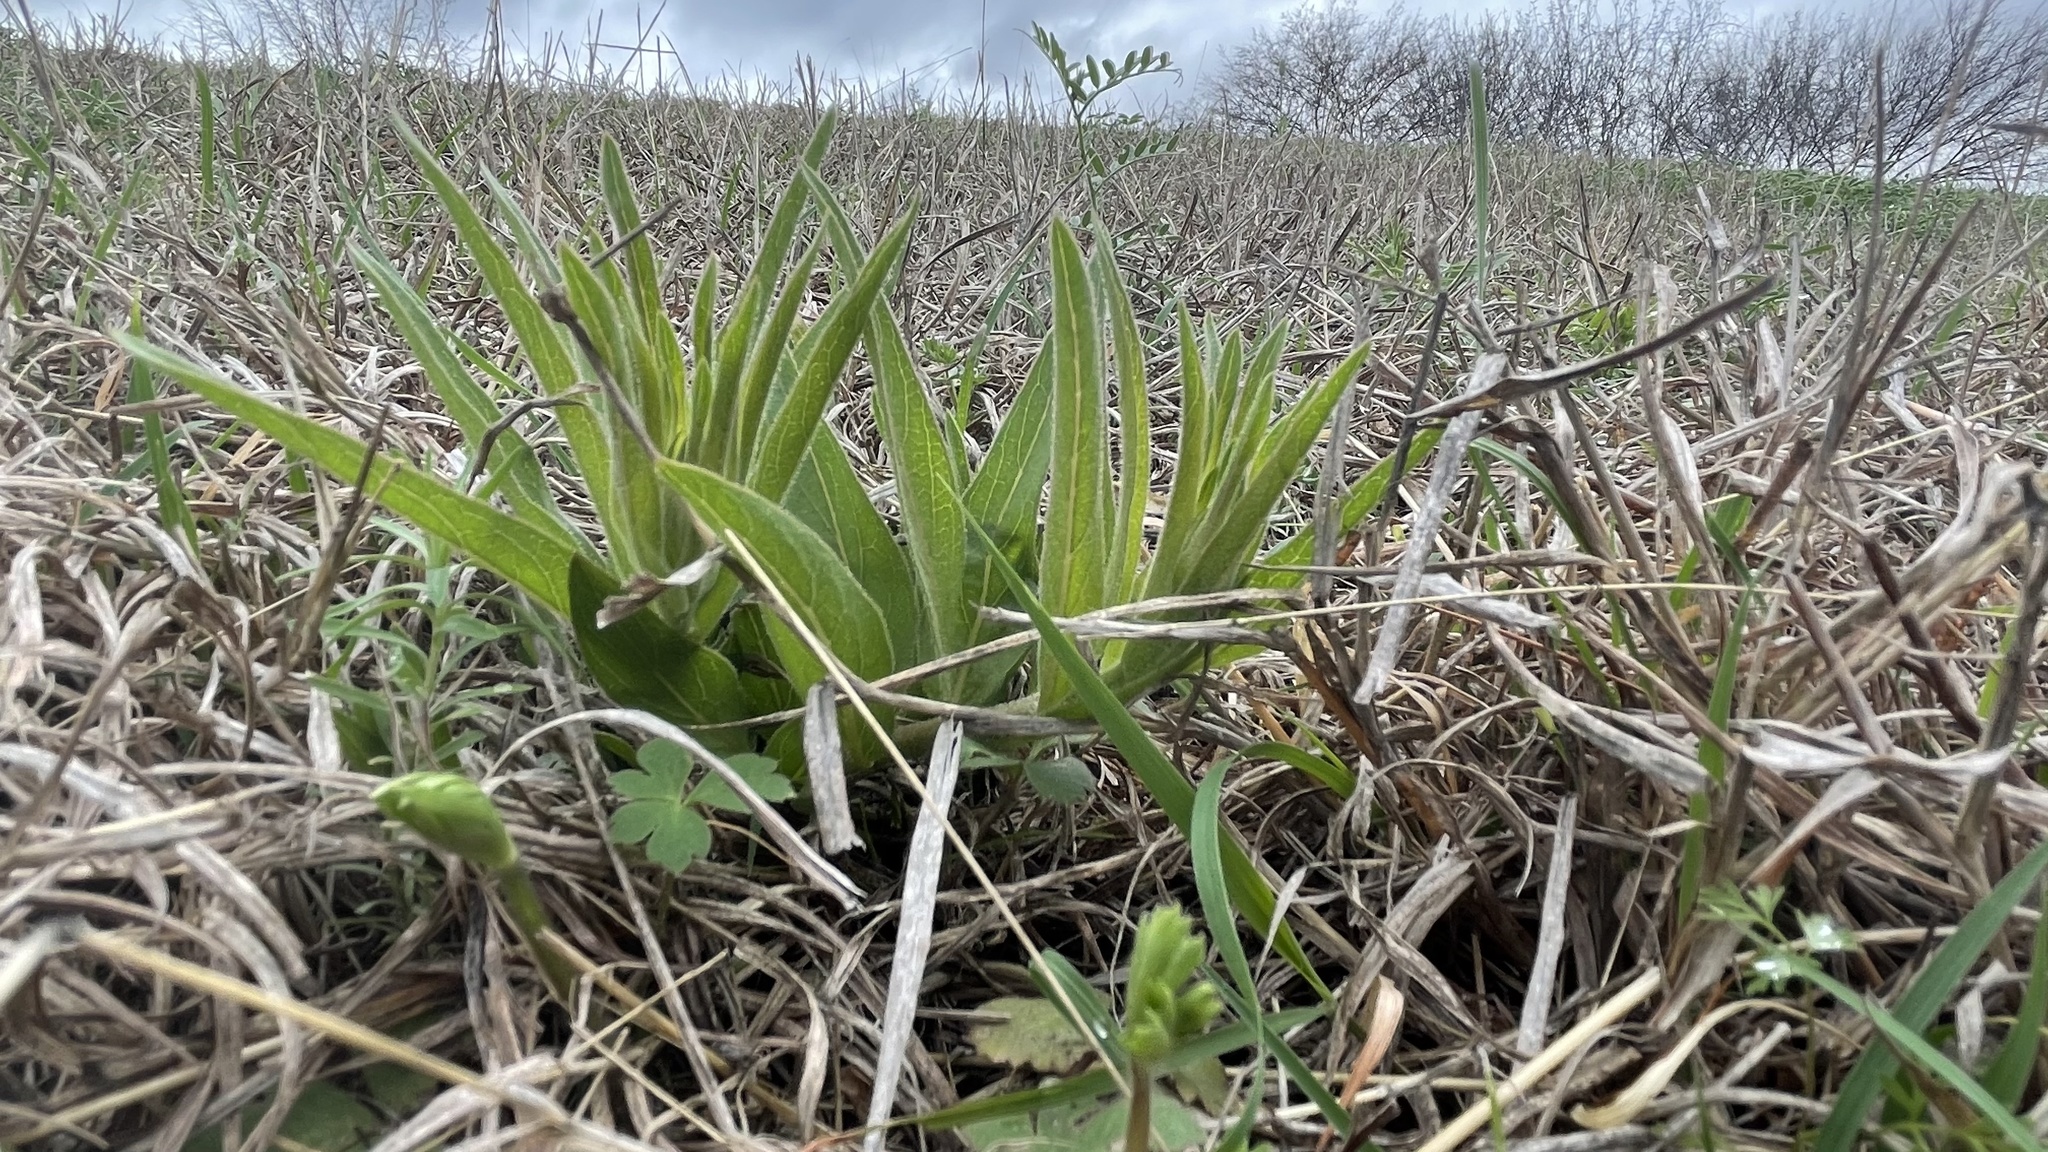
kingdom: Plantae
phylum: Tracheophyta
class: Magnoliopsida
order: Gentianales
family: Apocynaceae
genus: Asclepias
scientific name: Asclepias asperula
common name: Antelope horns
